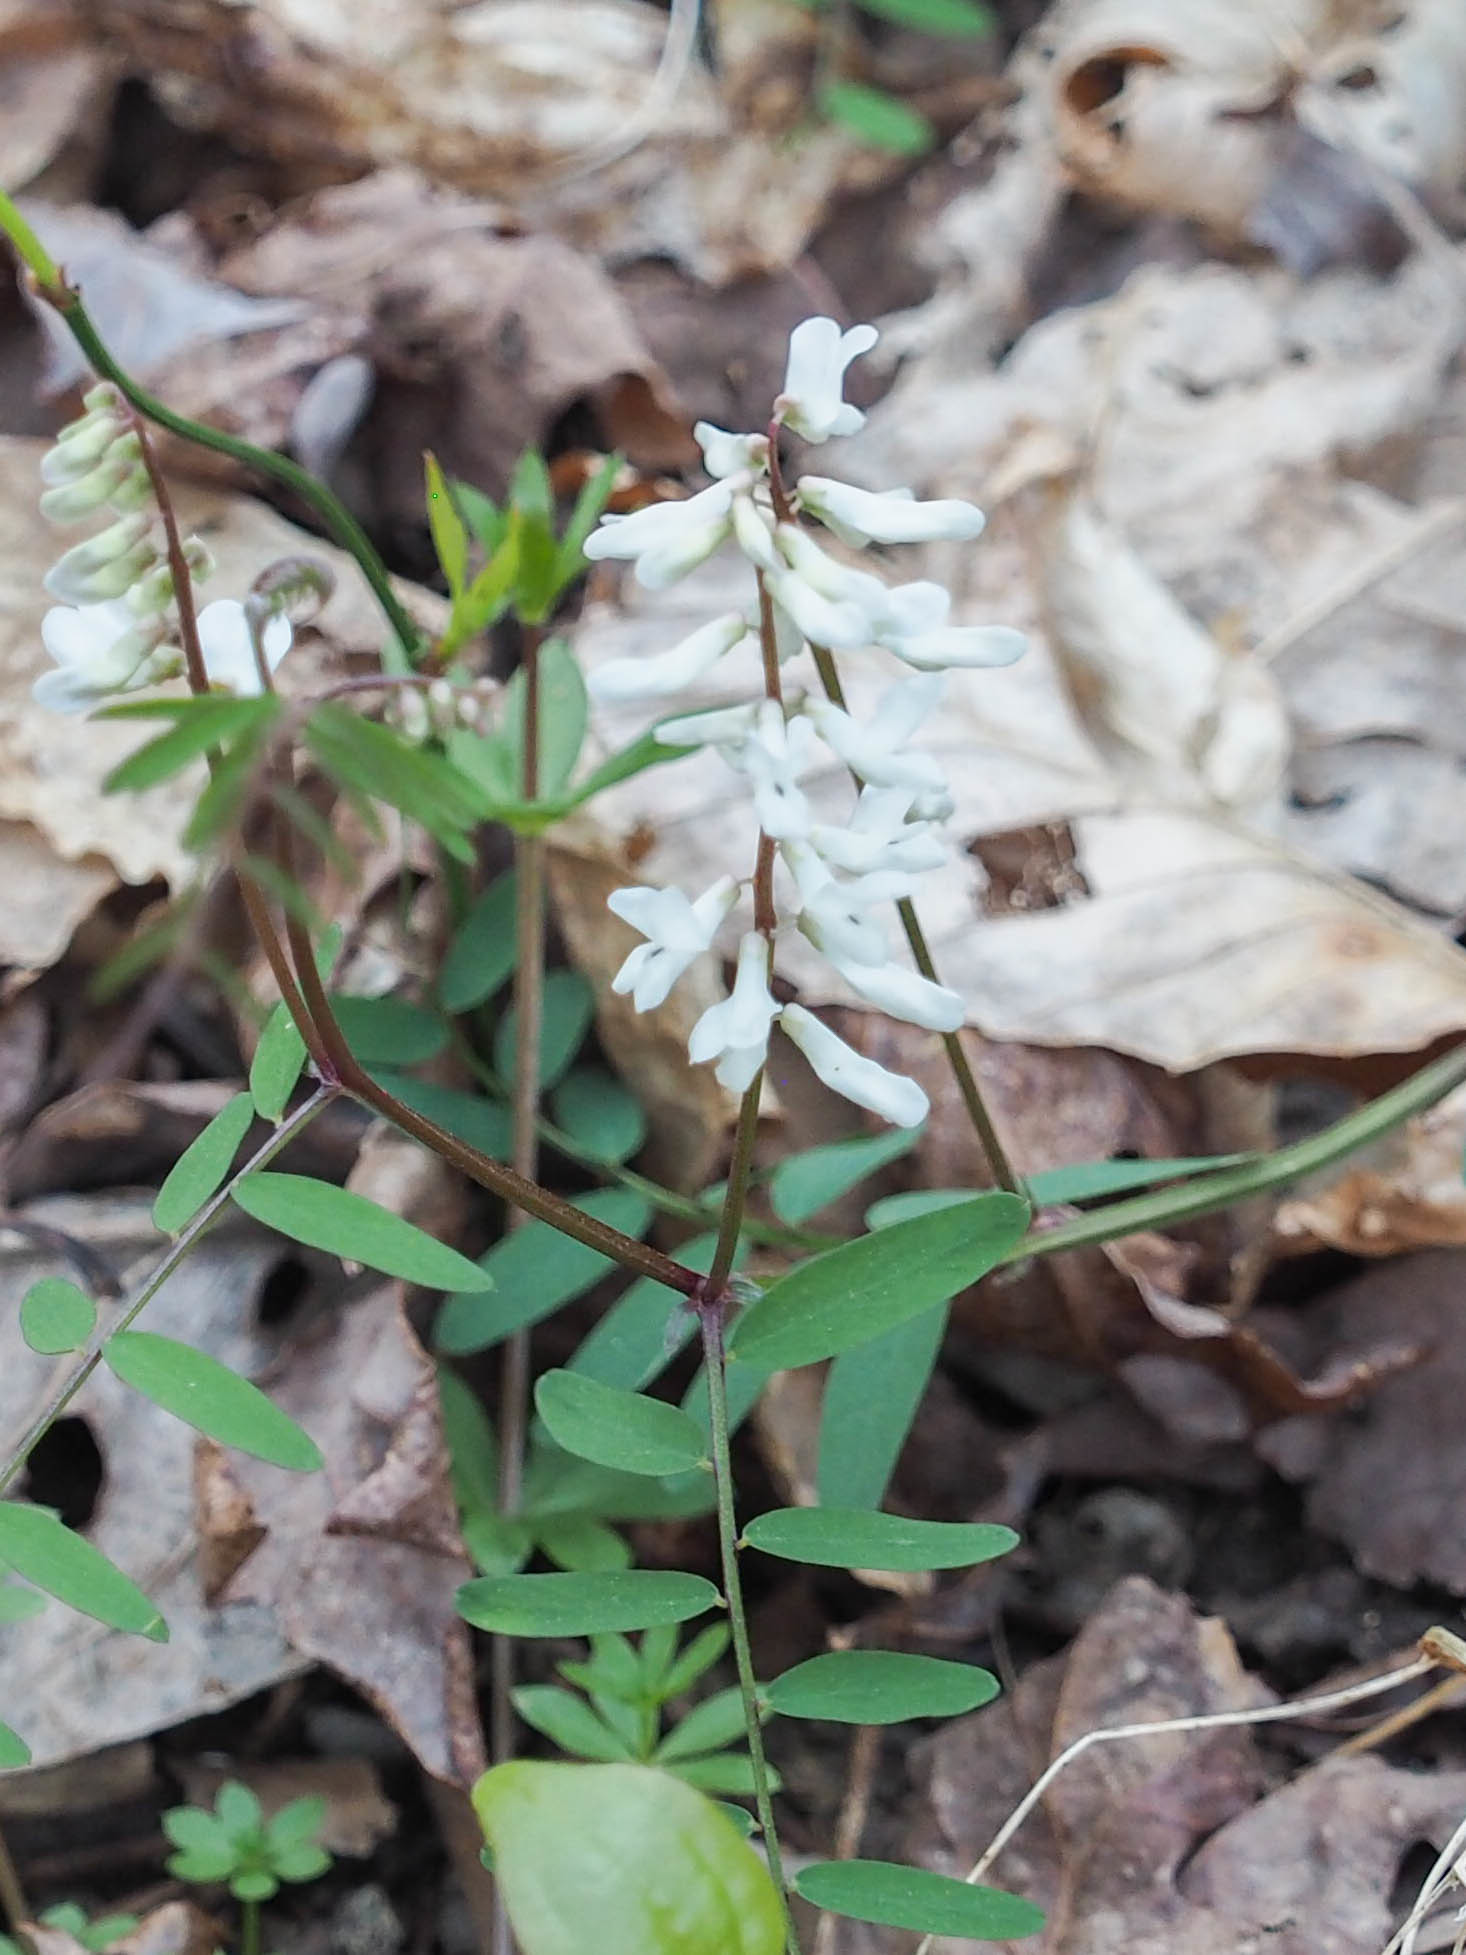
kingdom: Plantae
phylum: Tracheophyta
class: Magnoliopsida
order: Fabales
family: Fabaceae
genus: Vicia
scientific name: Vicia caroliniana
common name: Carolina vetch
